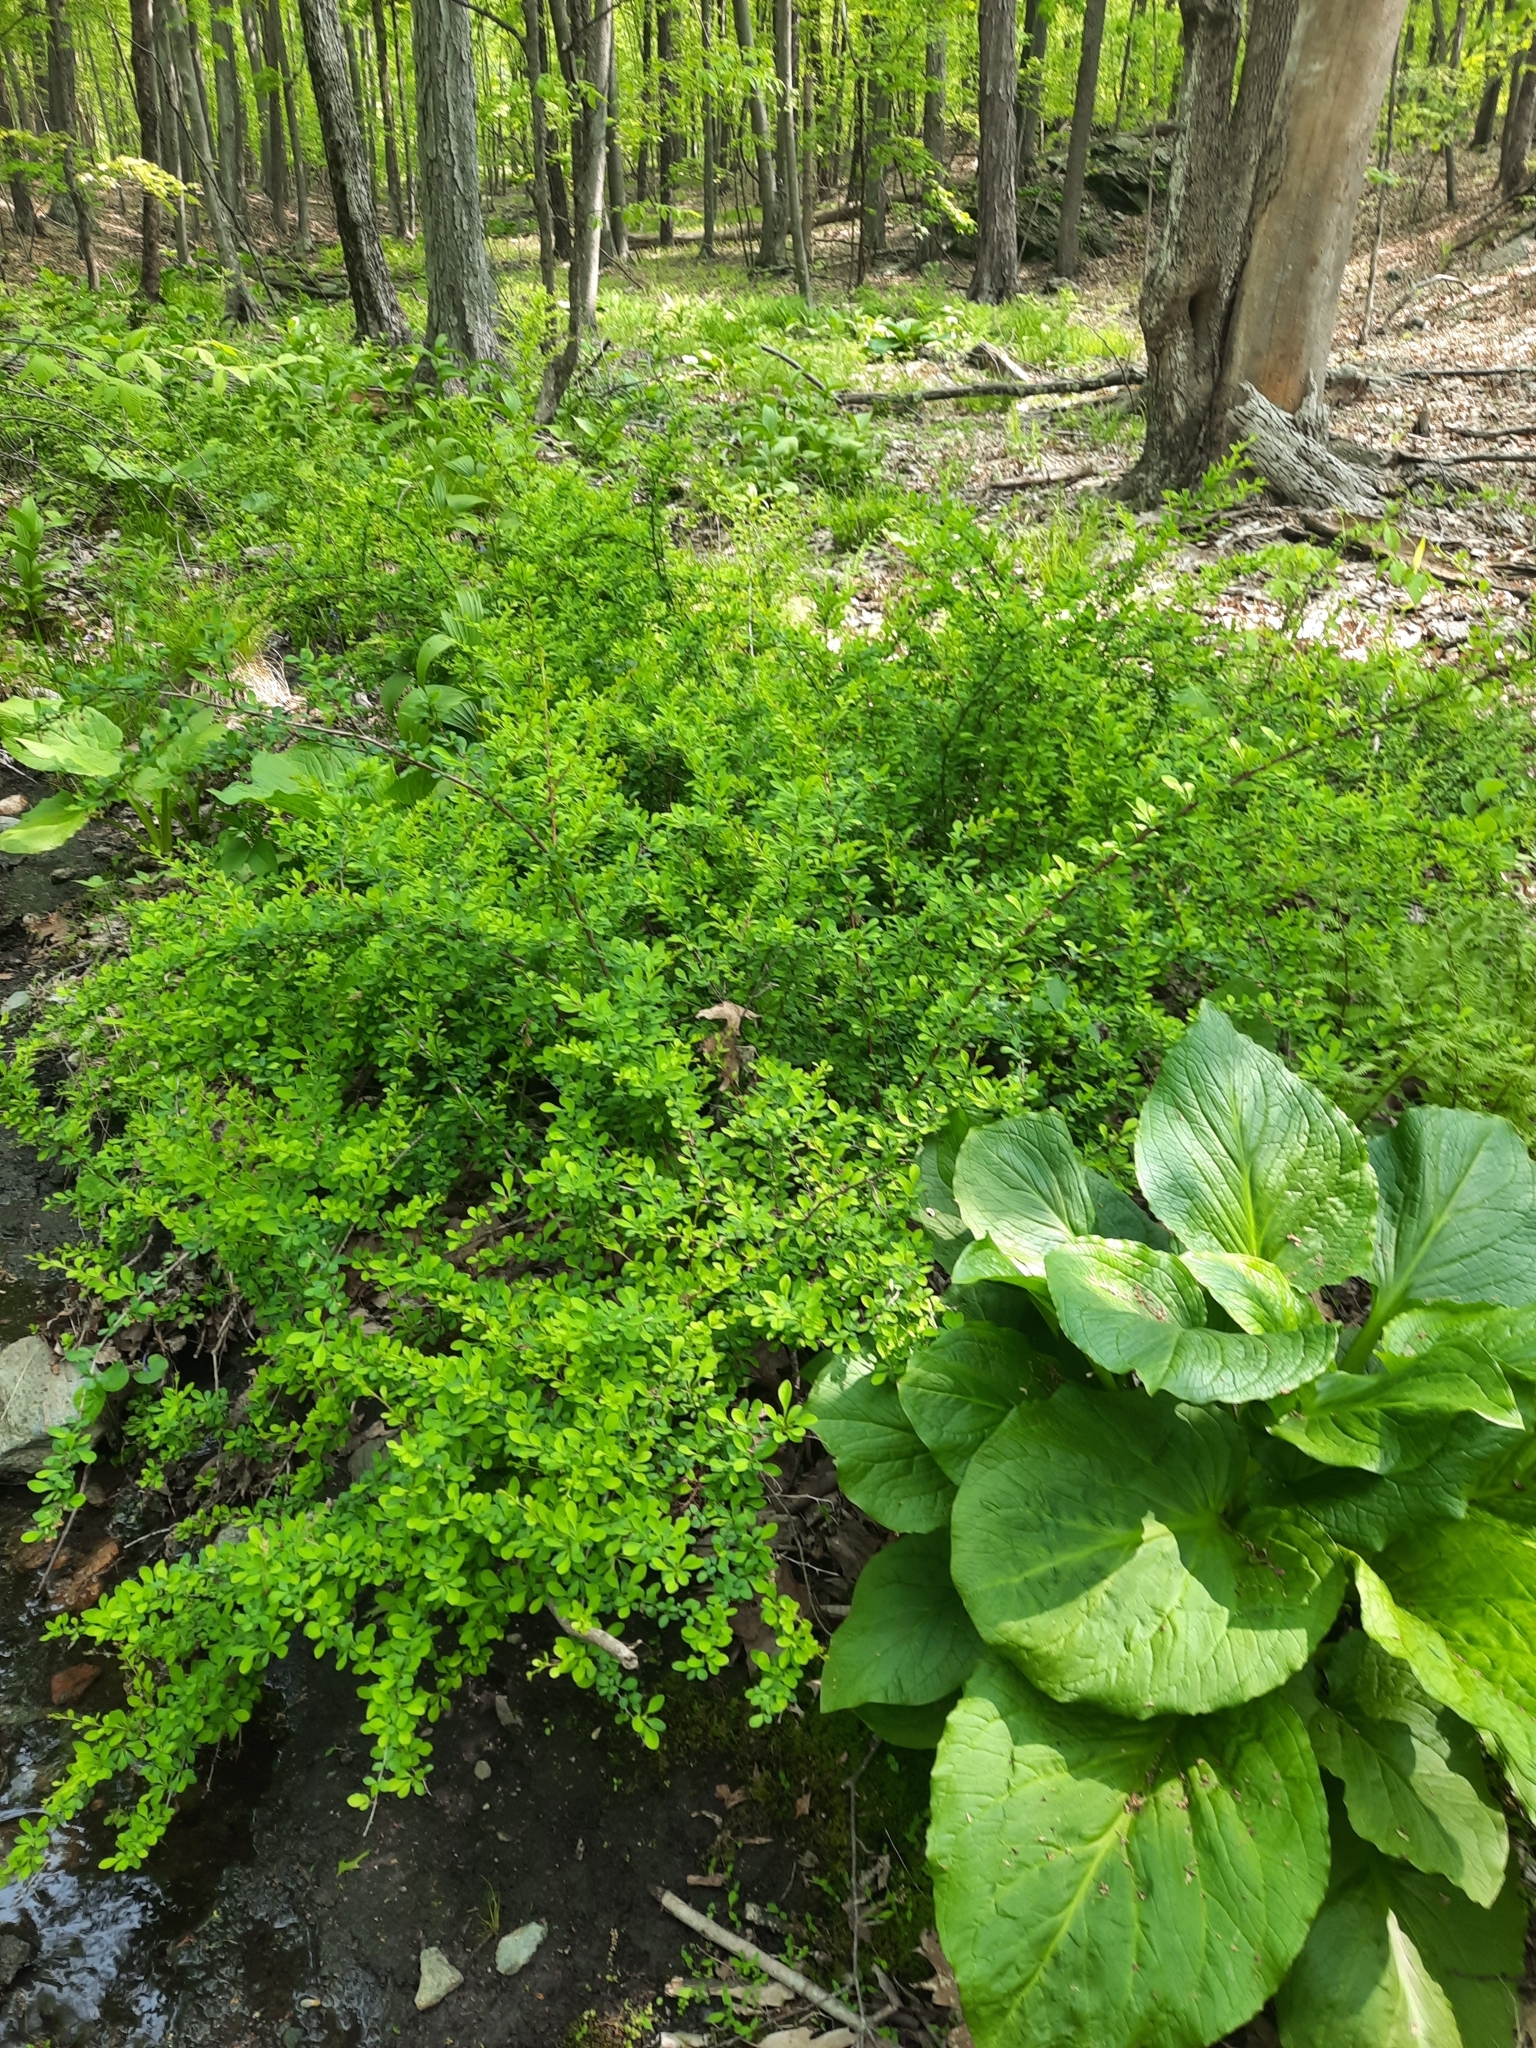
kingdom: Plantae
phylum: Tracheophyta
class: Magnoliopsida
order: Ranunculales
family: Berberidaceae
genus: Berberis
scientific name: Berberis thunbergii
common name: Japanese barberry
